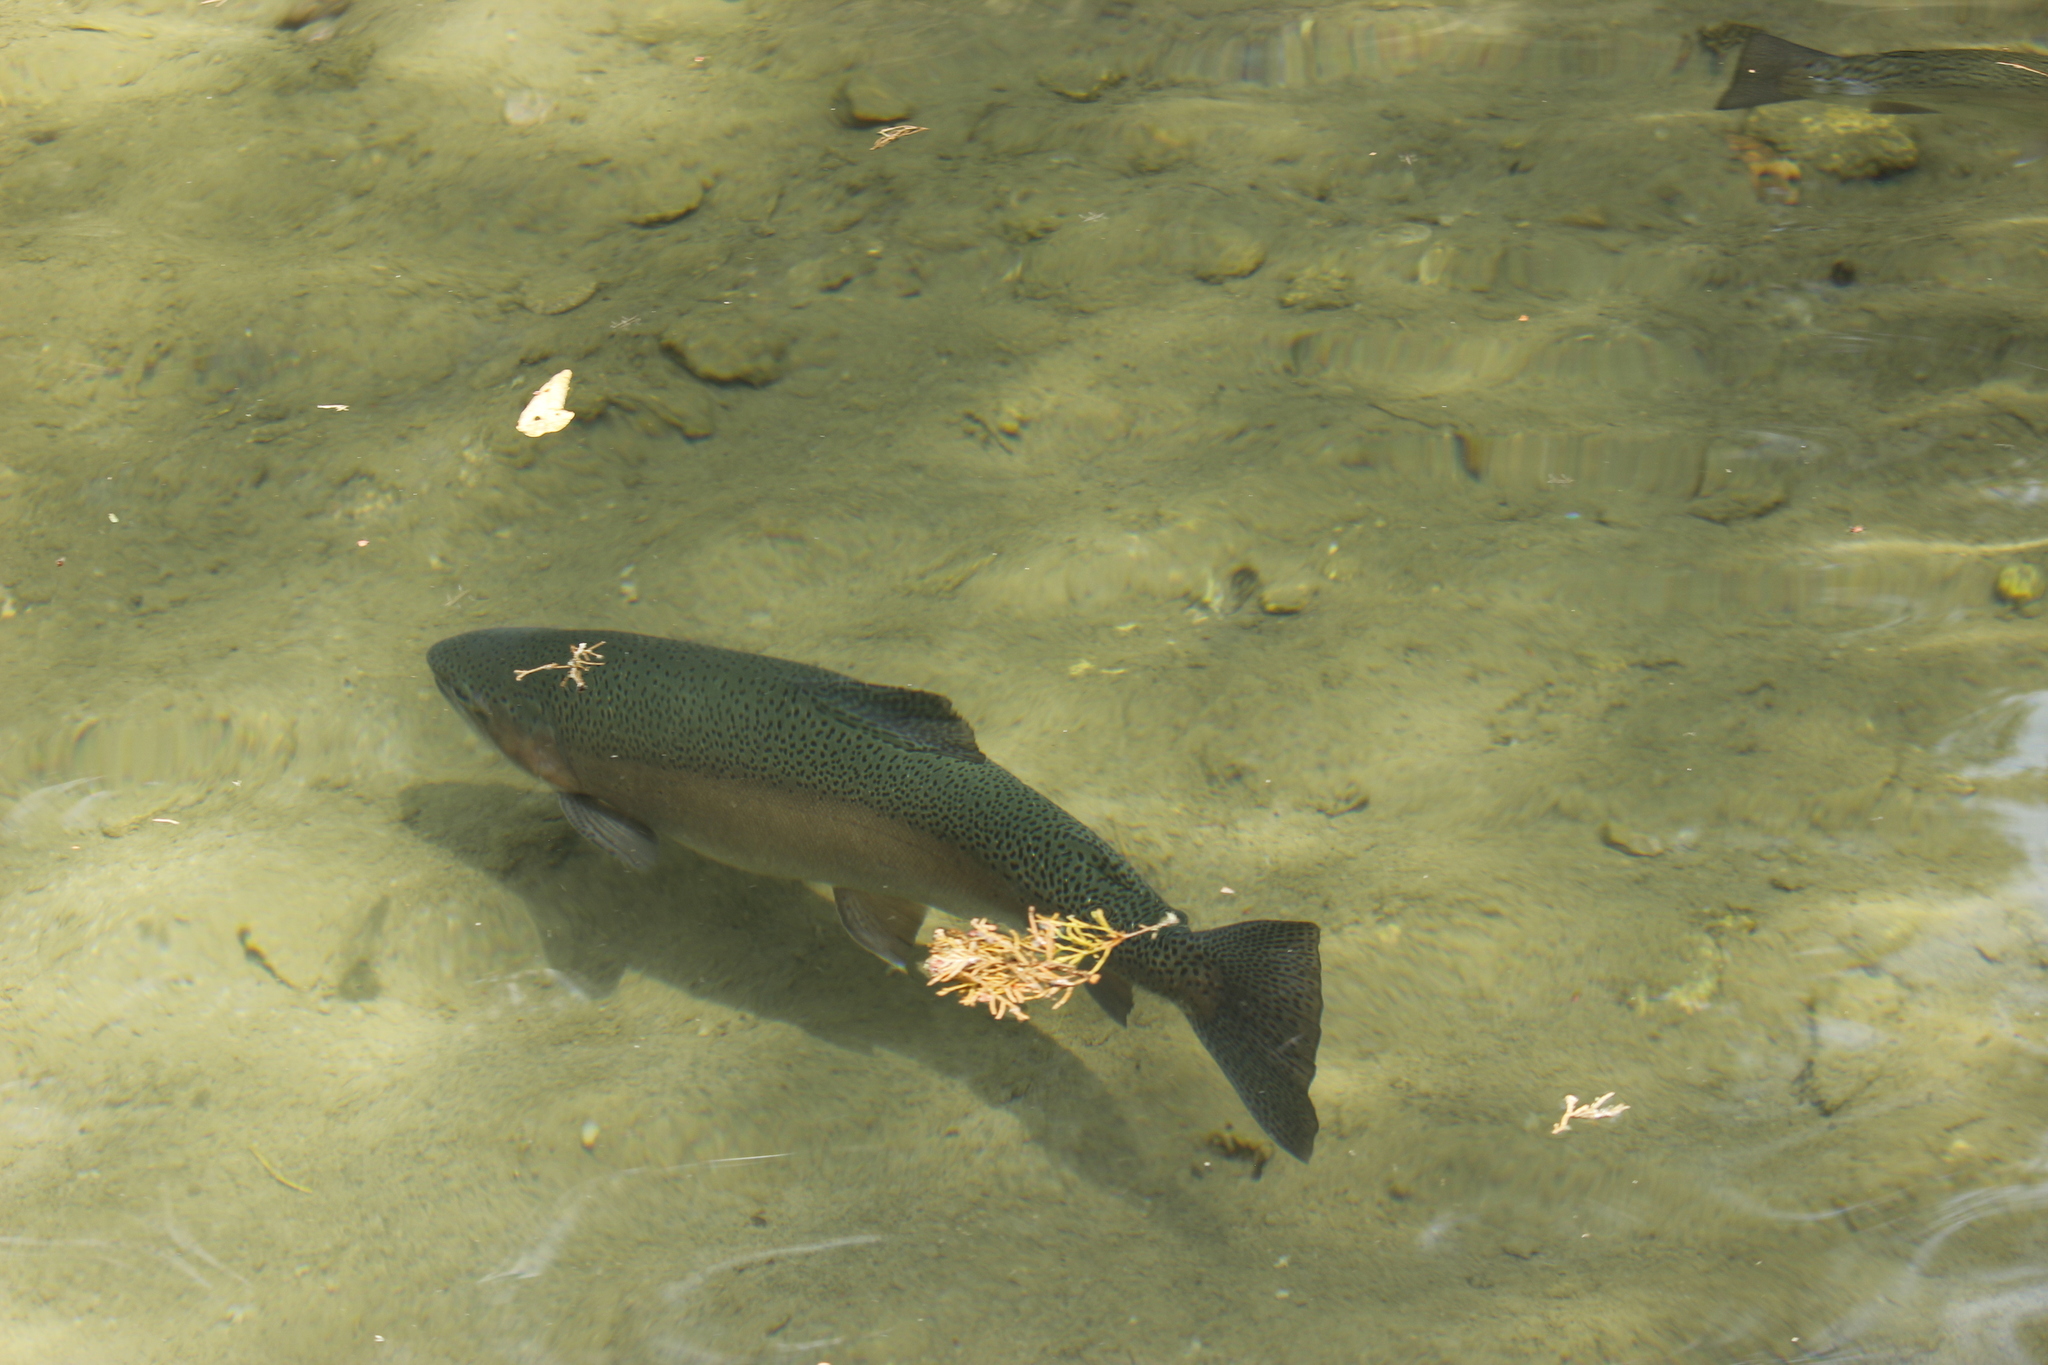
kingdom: Animalia
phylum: Chordata
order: Salmoniformes
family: Salmonidae
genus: Oncorhynchus
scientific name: Oncorhynchus mykiss
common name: Rainbow trout
